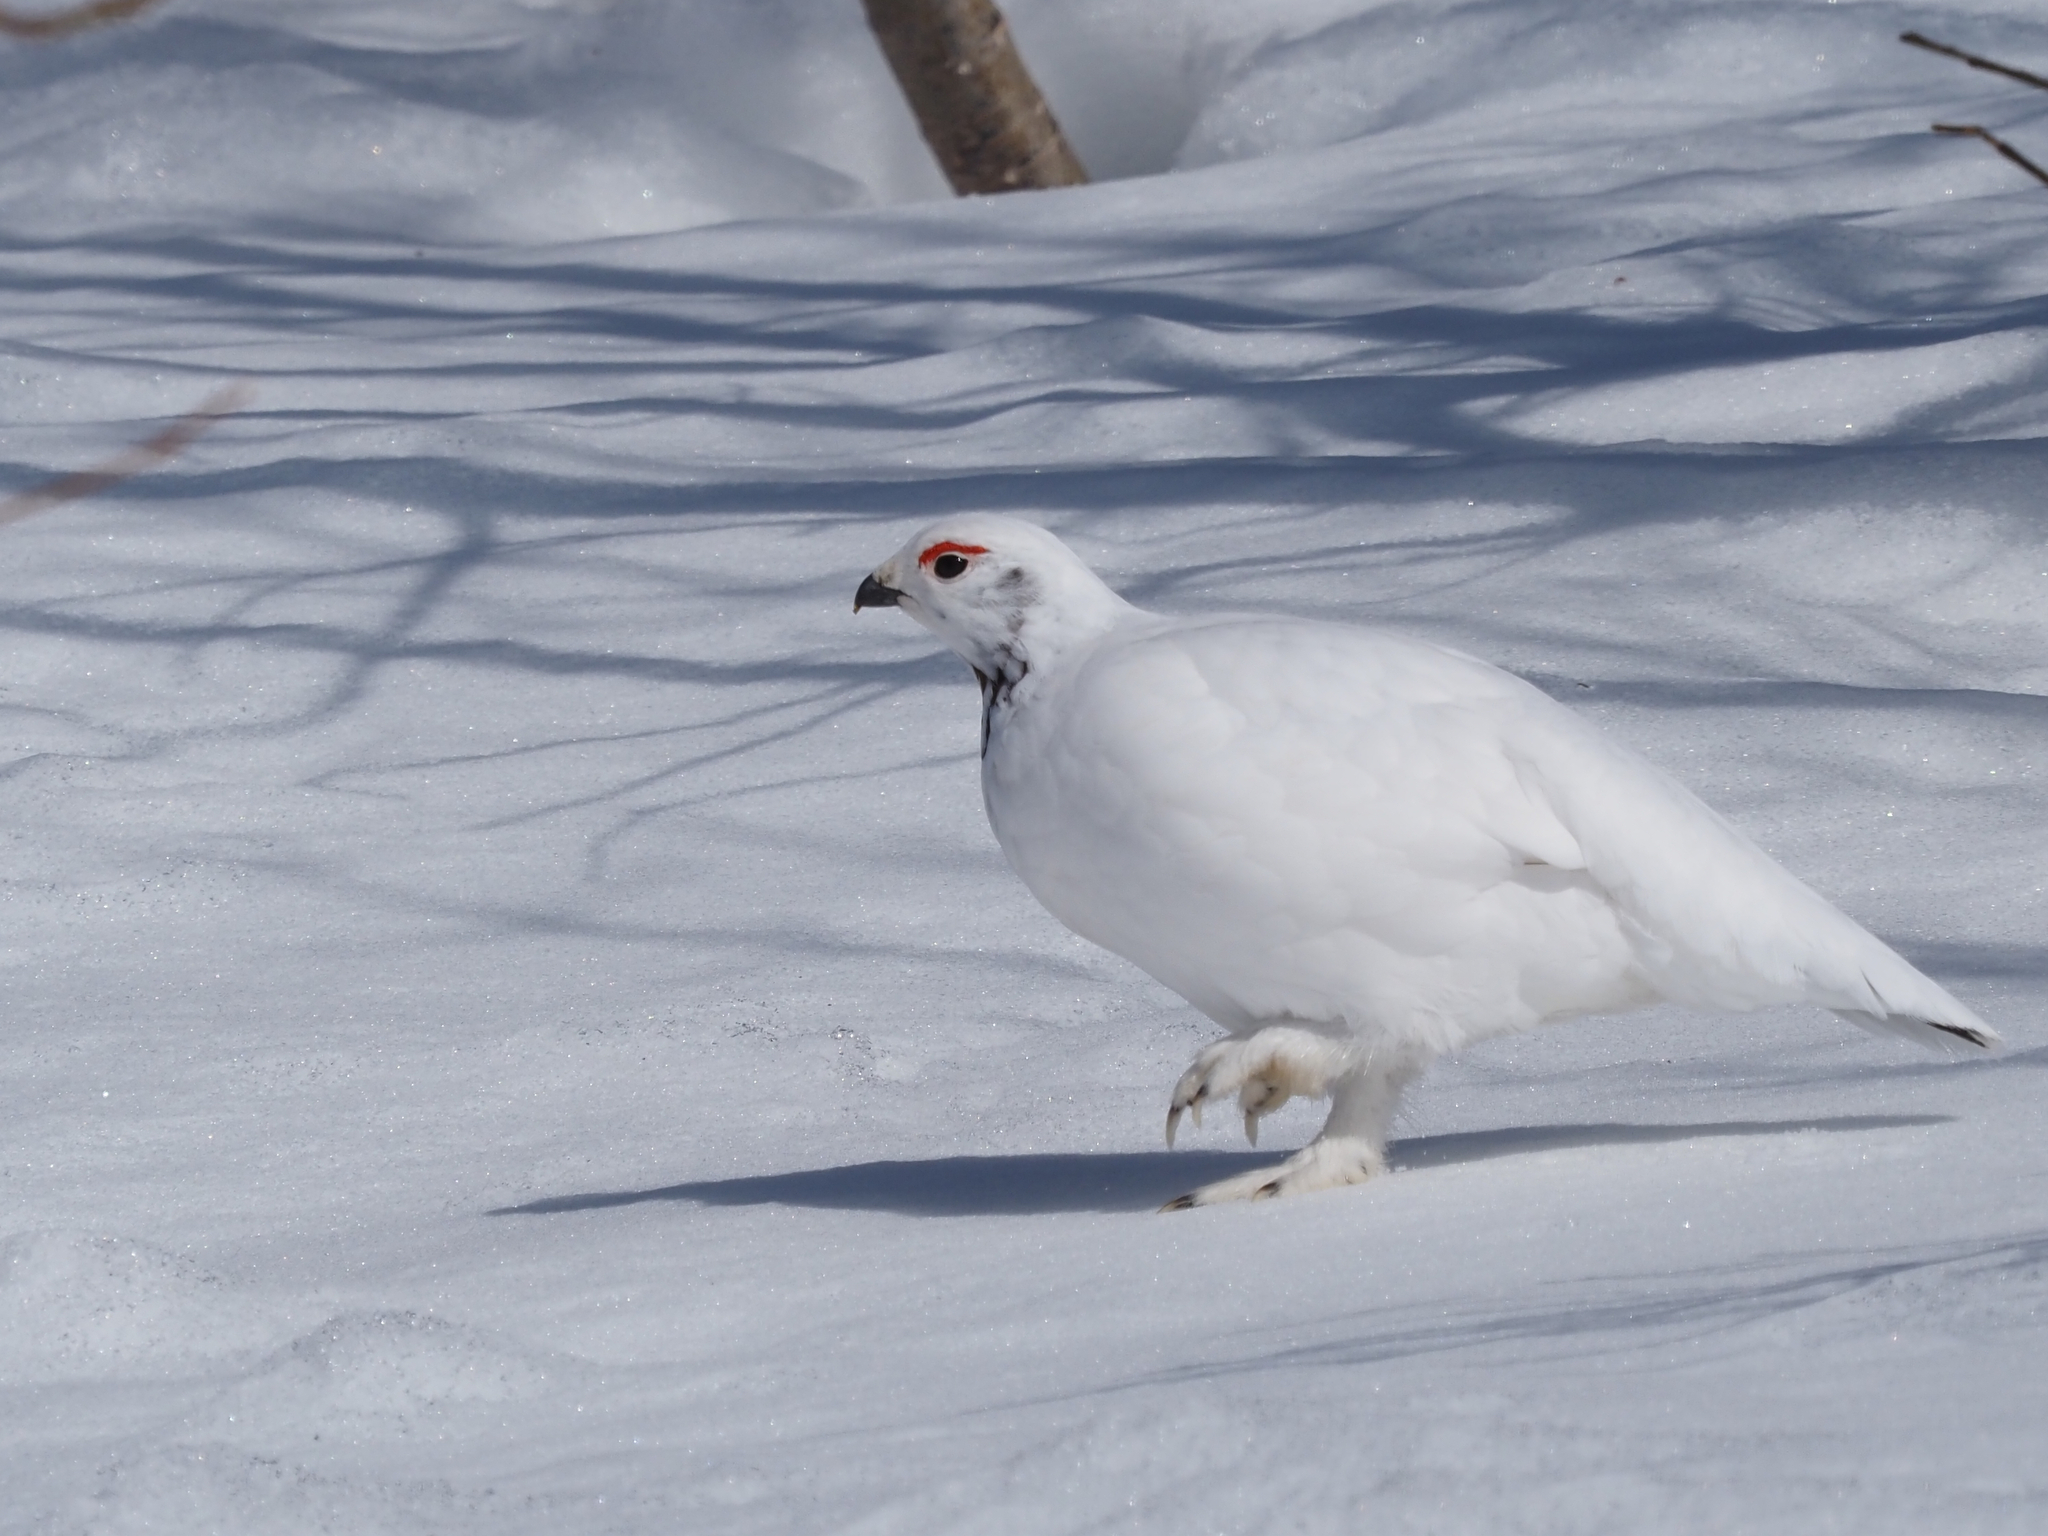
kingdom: Animalia
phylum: Chordata
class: Aves
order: Galliformes
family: Phasianidae
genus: Lagopus
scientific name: Lagopus lagopus
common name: Willow ptarmigan
